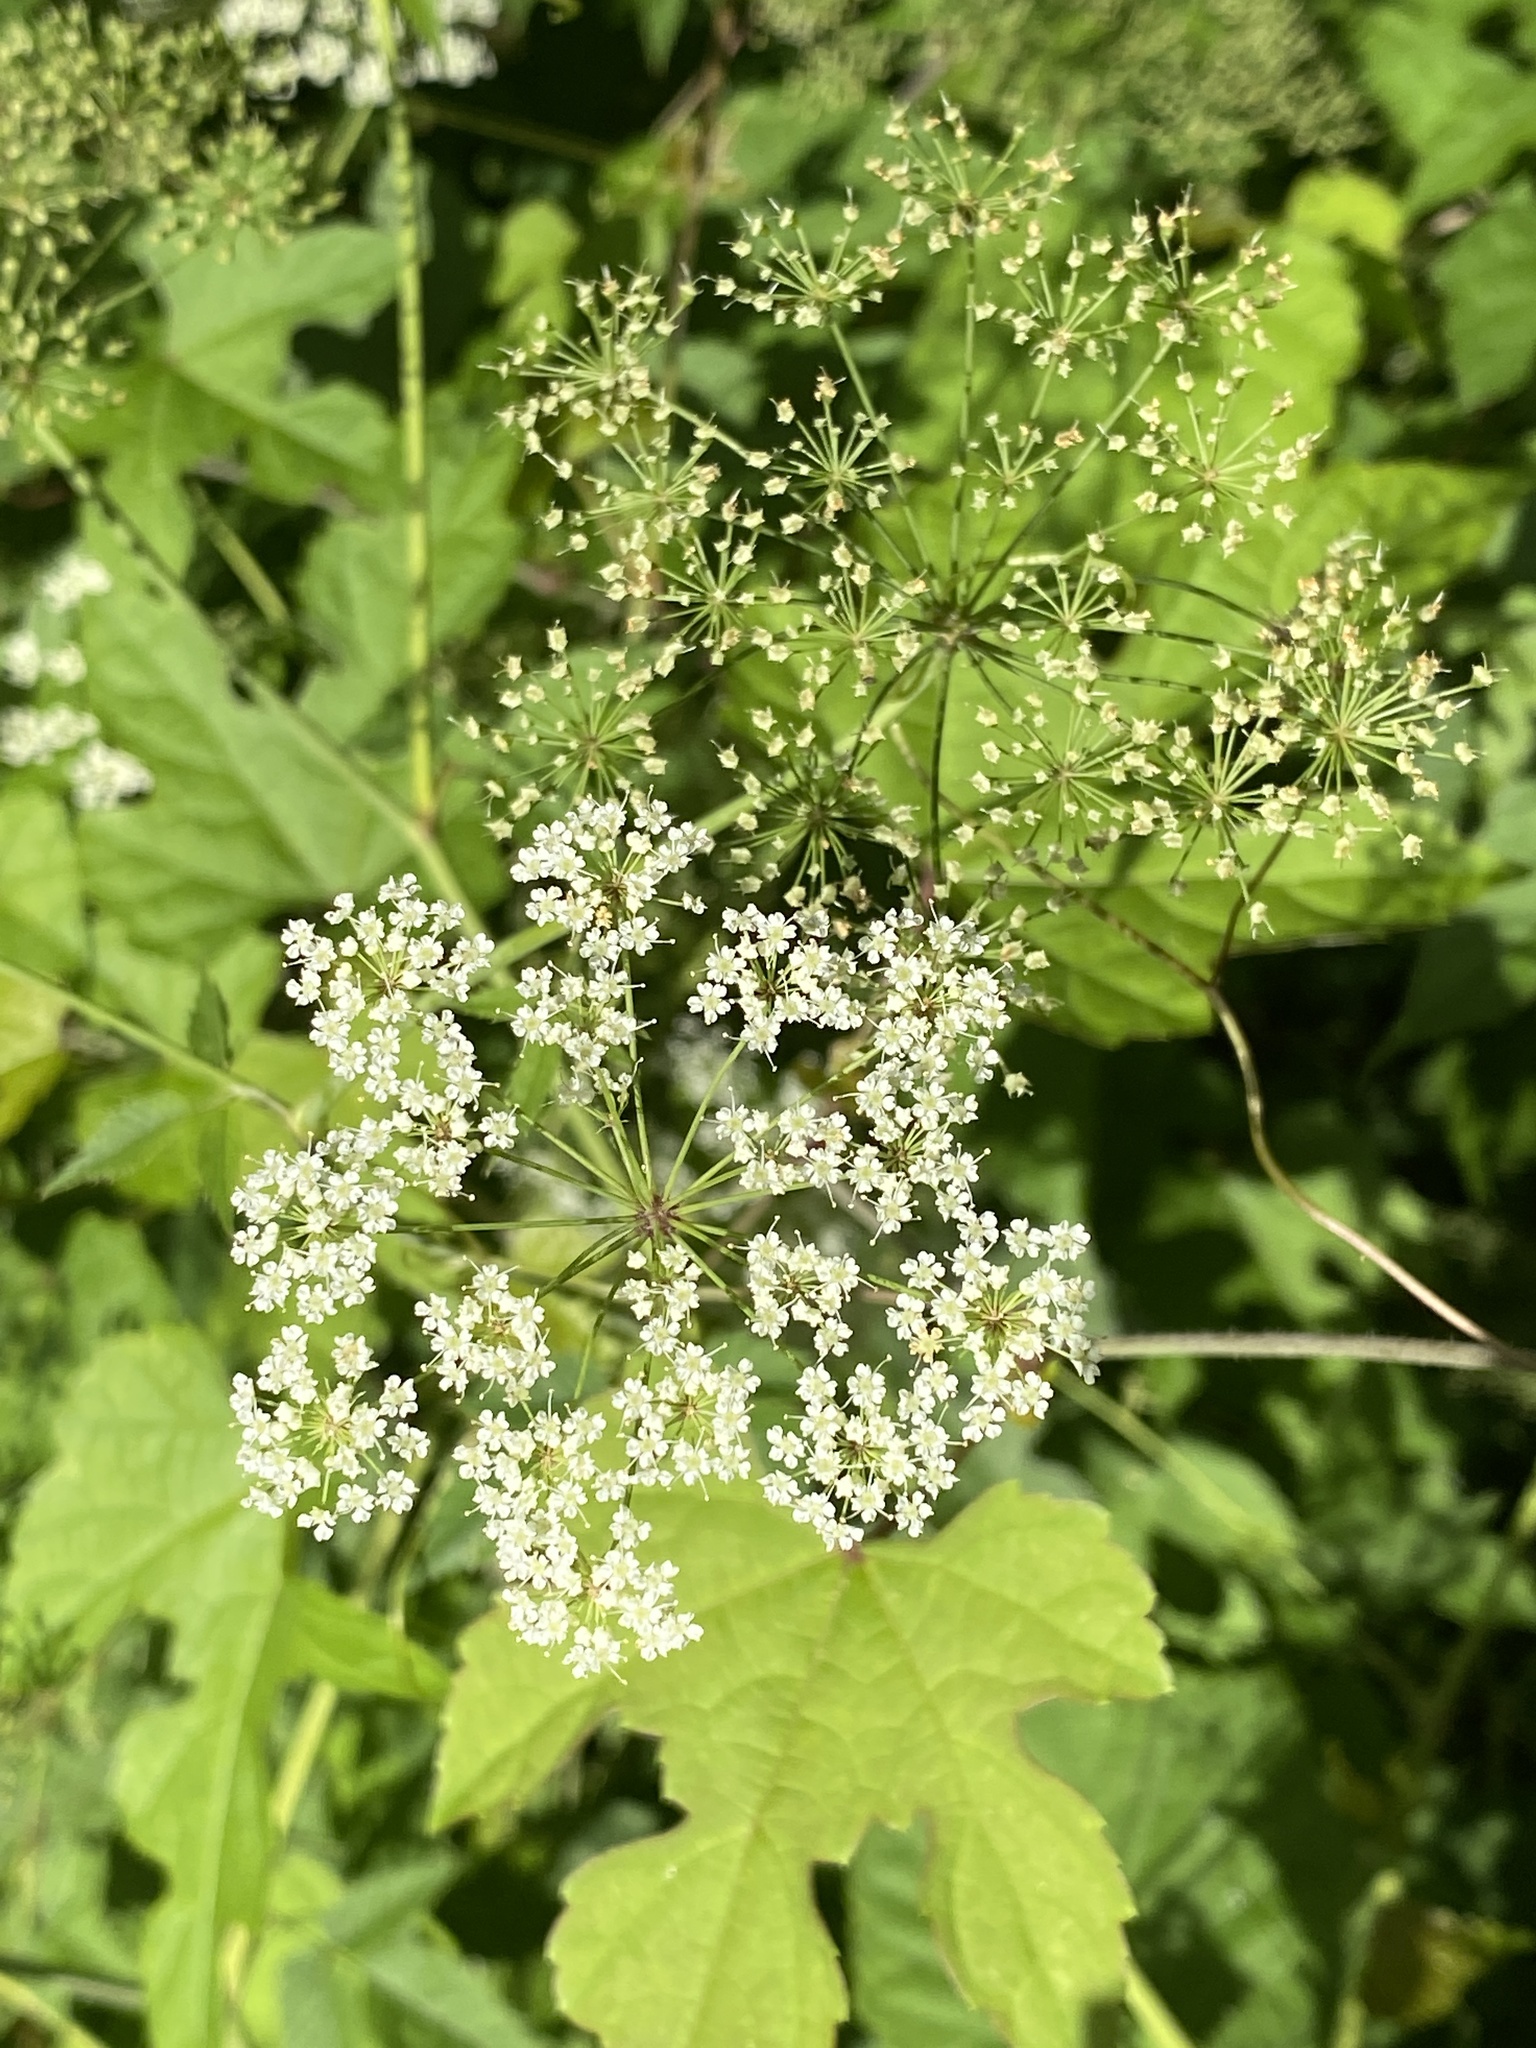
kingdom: Plantae
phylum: Tracheophyta
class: Magnoliopsida
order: Apiales
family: Apiaceae
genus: Cicuta
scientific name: Cicuta maculata
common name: Spotted cowbane
